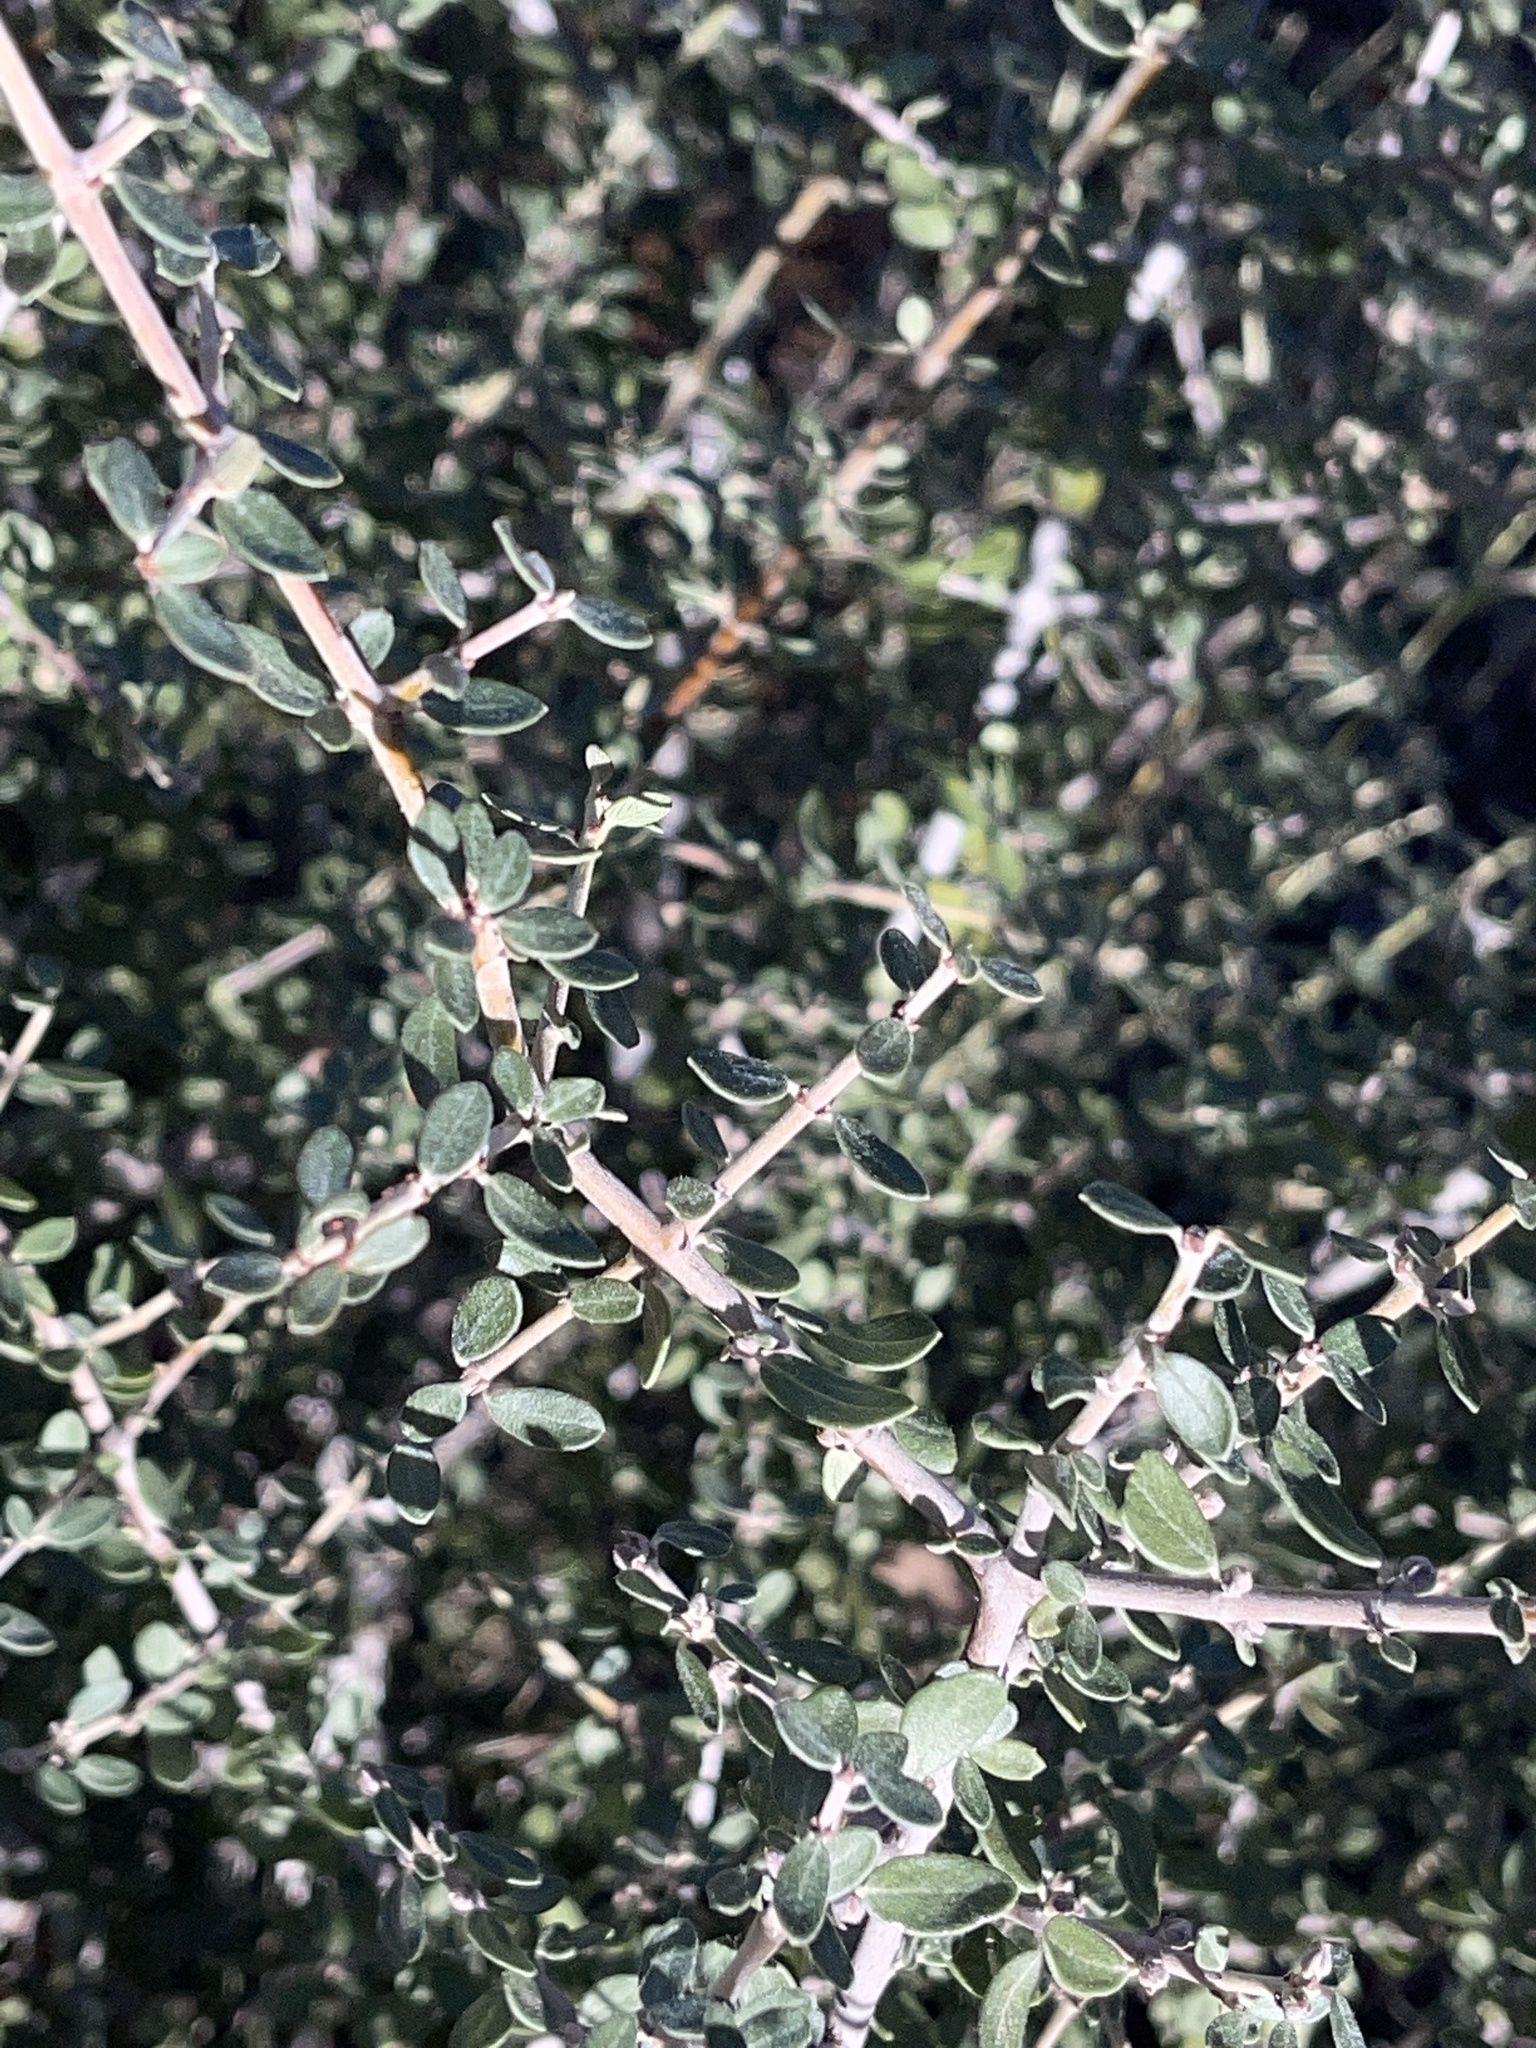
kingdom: Plantae
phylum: Tracheophyta
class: Magnoliopsida
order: Rosales
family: Rhamnaceae
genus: Ceanothus
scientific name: Ceanothus pauciflorus
